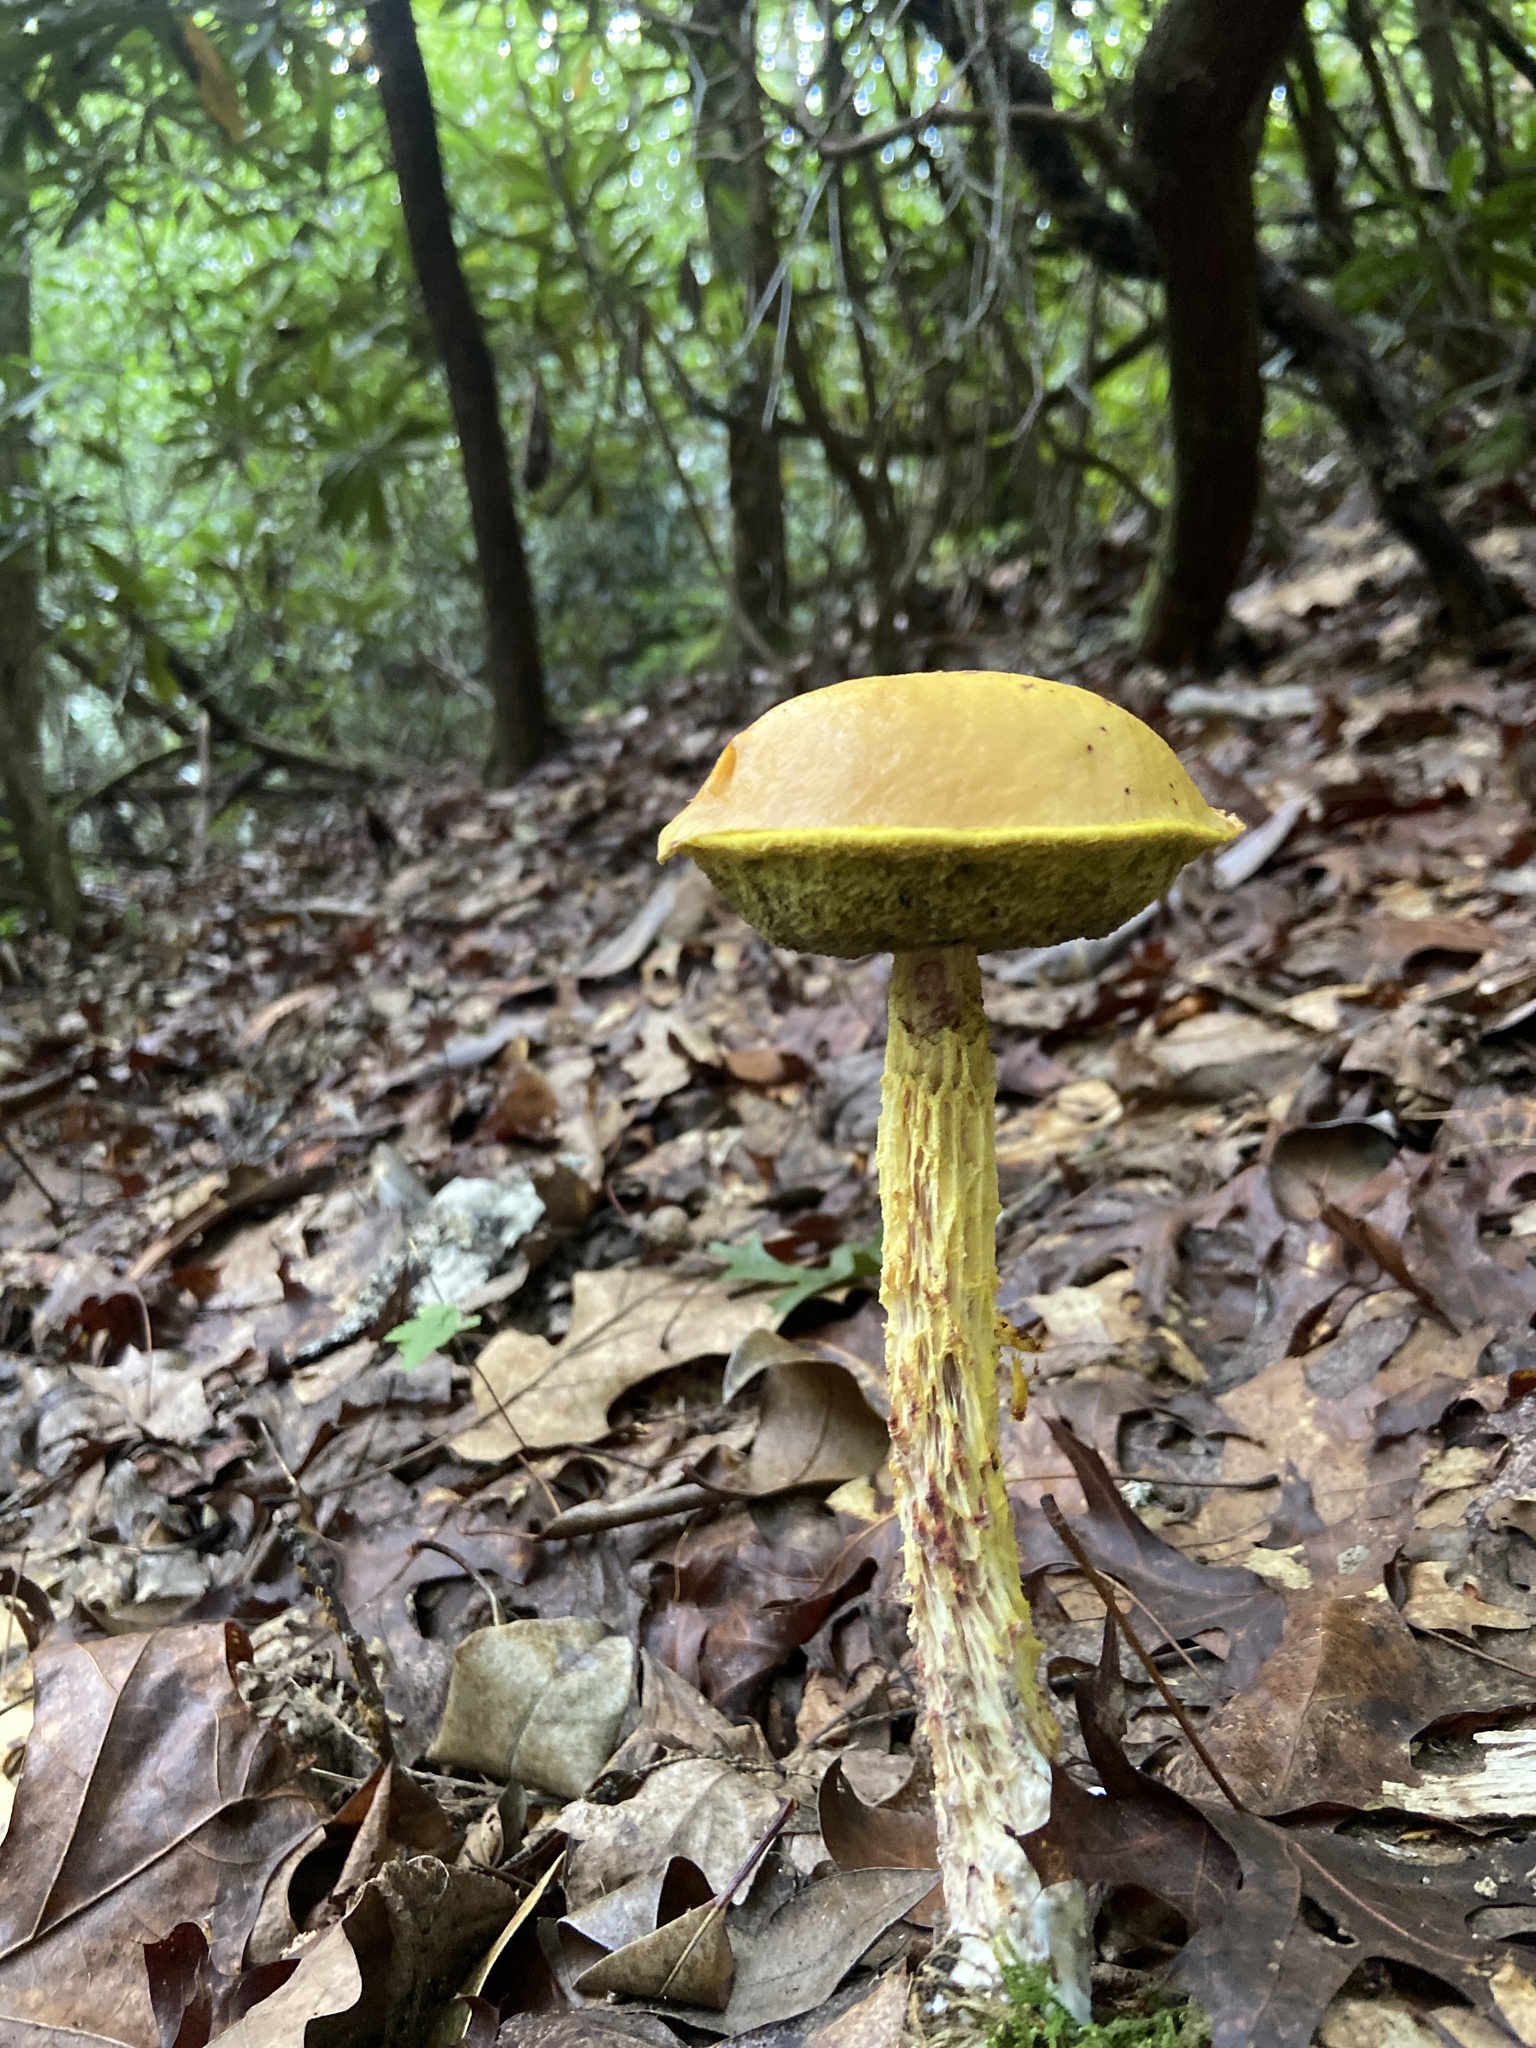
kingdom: Fungi
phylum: Basidiomycota
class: Agaricomycetes
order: Boletales
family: Boletaceae
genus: Aureoboletus
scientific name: Aureoboletus betula
